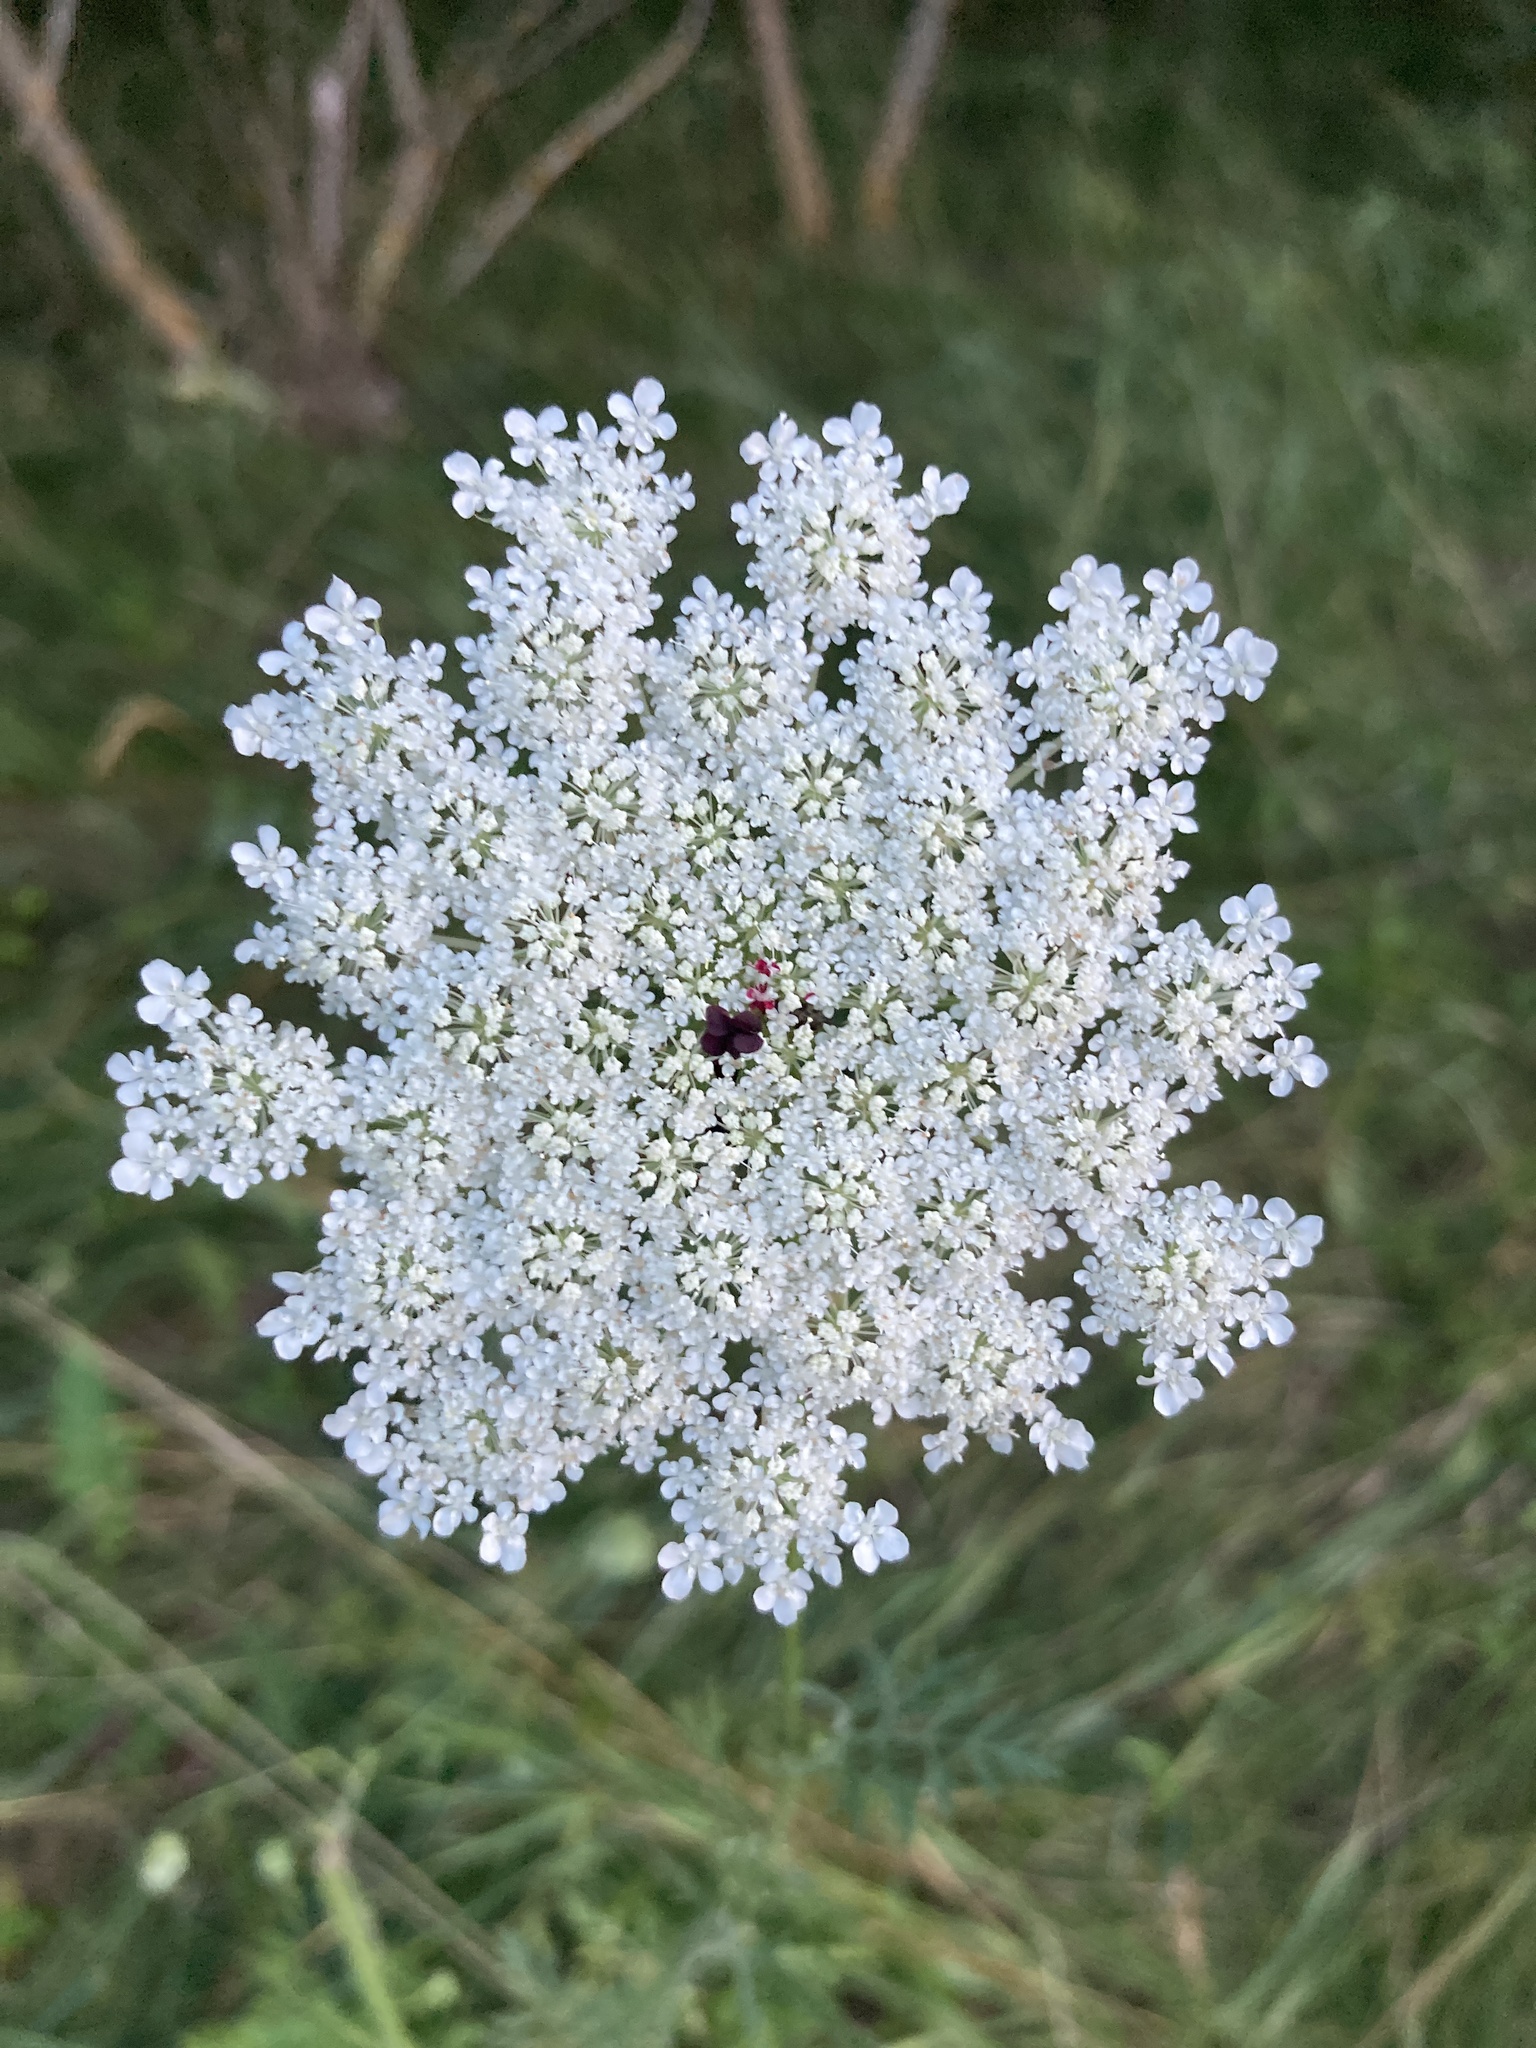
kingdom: Plantae
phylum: Tracheophyta
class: Magnoliopsida
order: Apiales
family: Apiaceae
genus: Daucus
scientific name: Daucus carota
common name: Wild carrot
